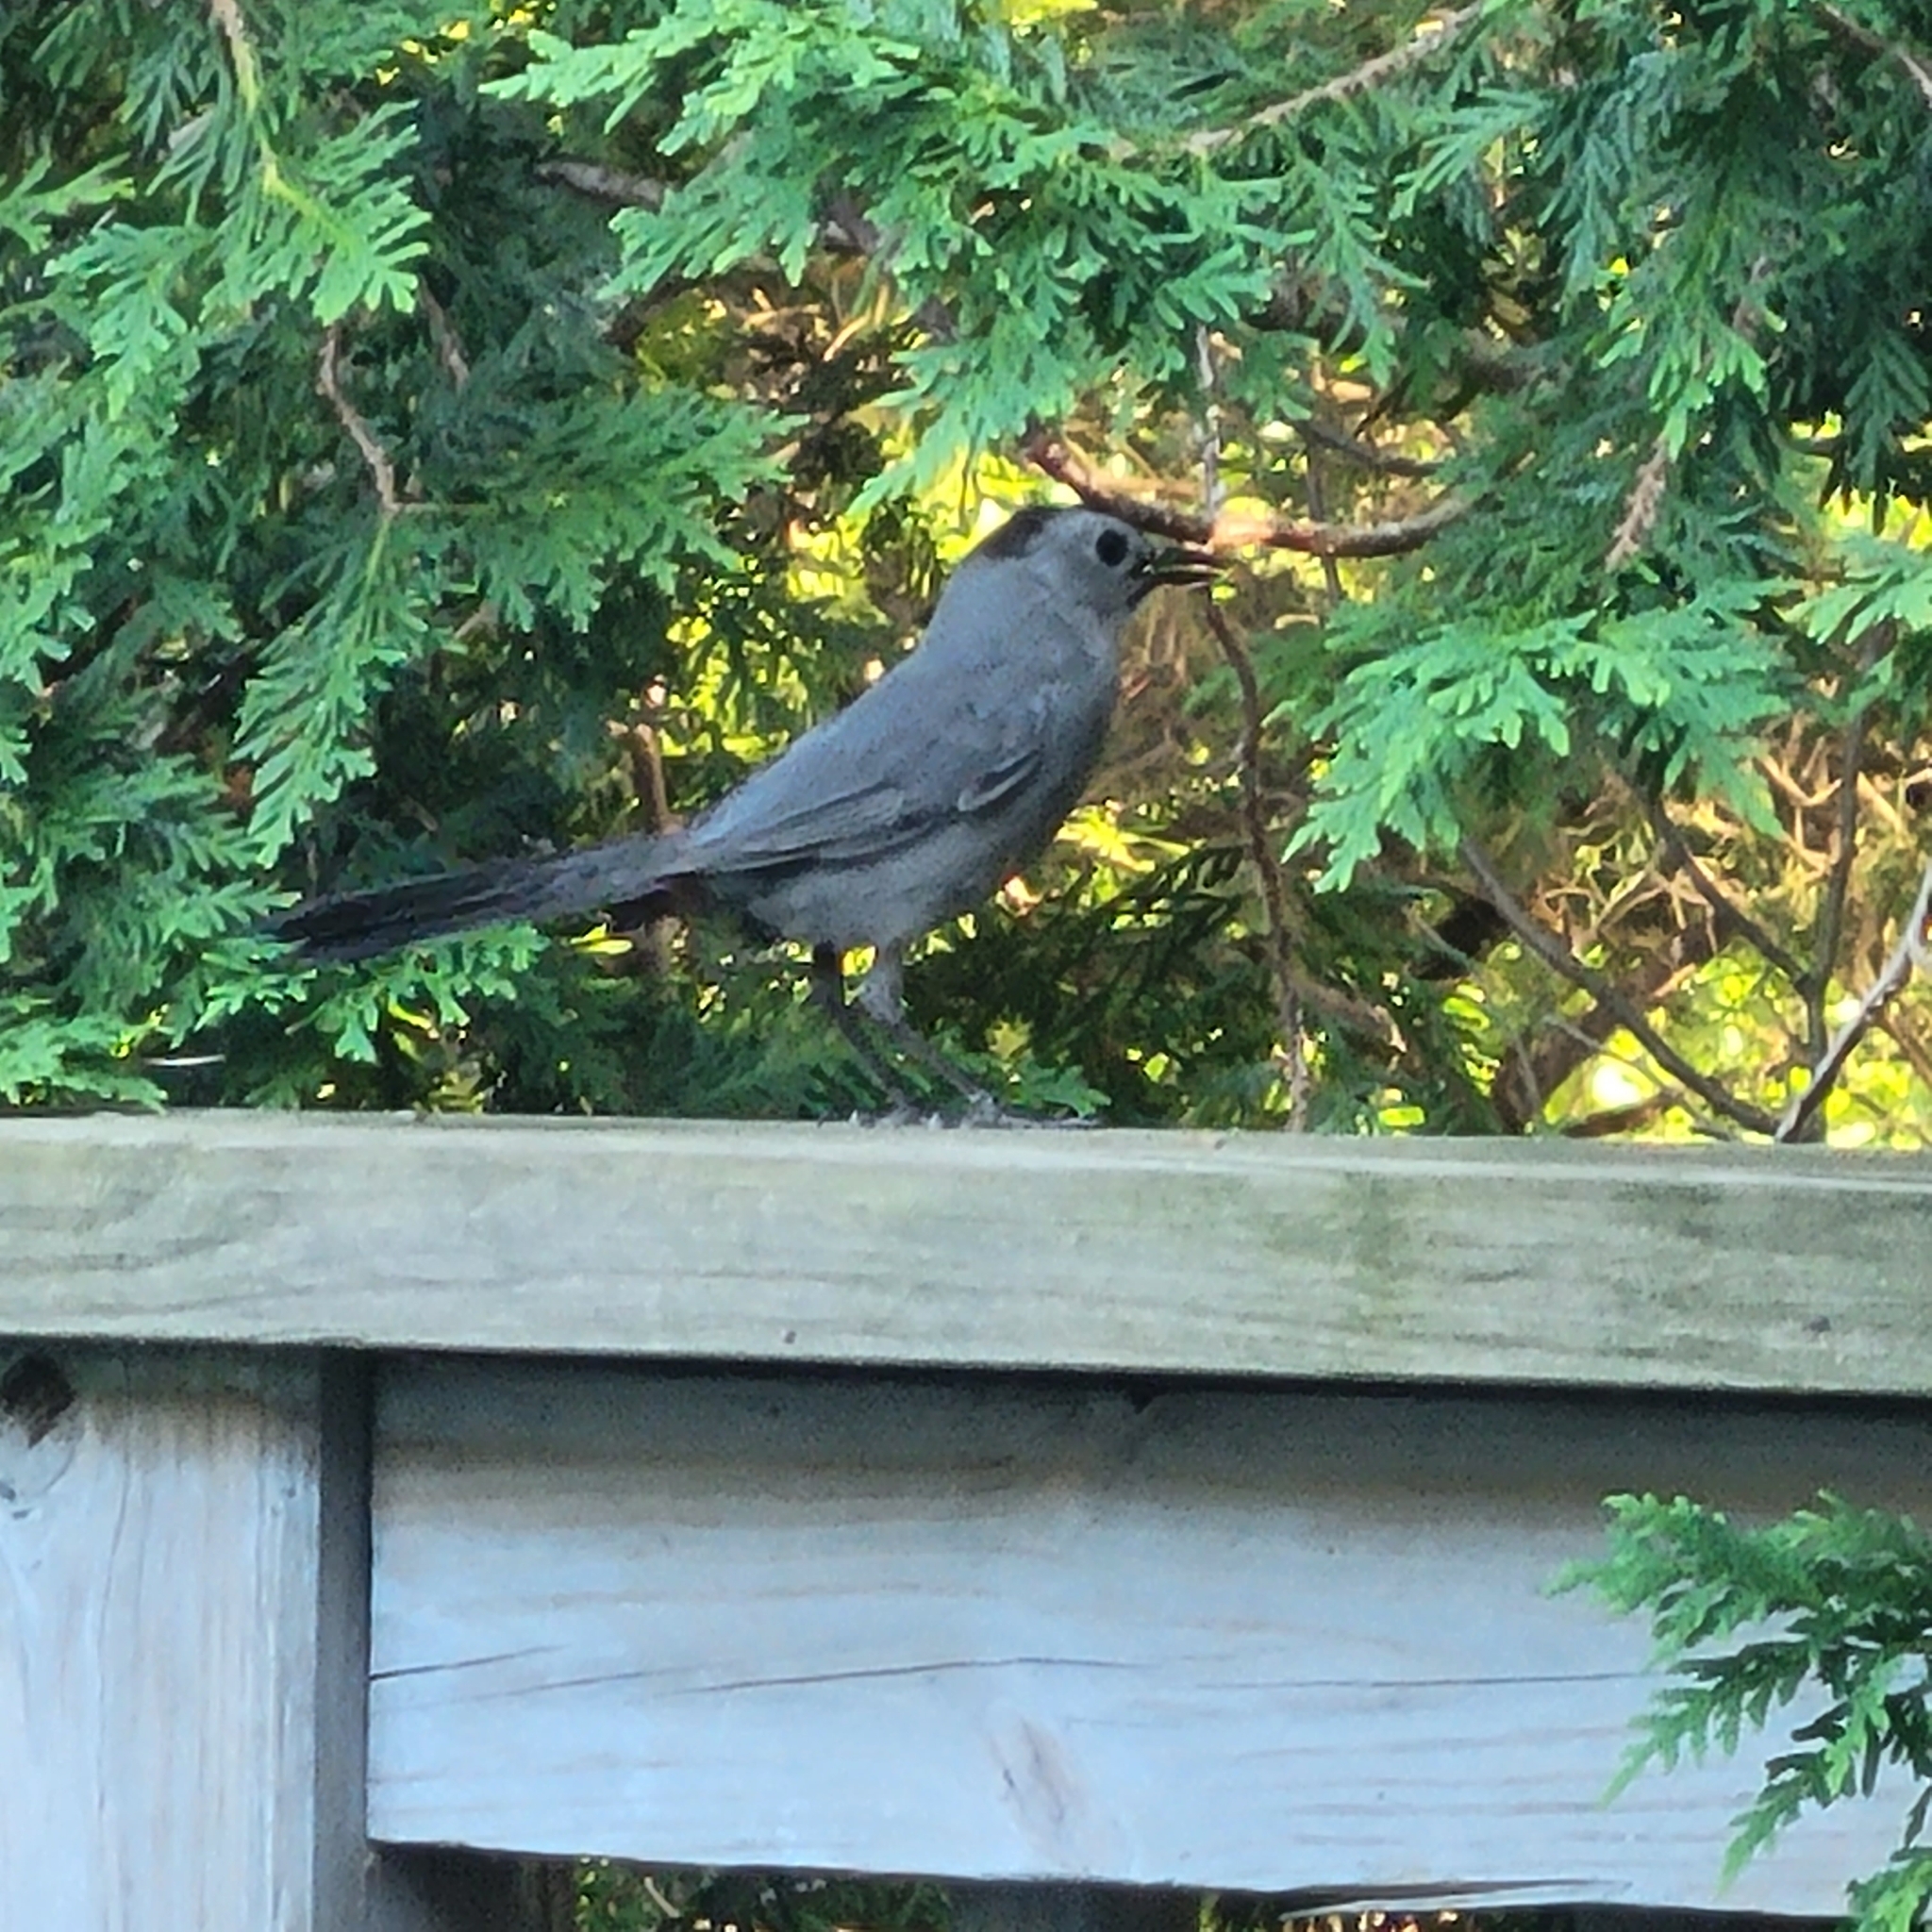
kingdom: Animalia
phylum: Chordata
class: Aves
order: Passeriformes
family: Mimidae
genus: Dumetella
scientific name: Dumetella carolinensis
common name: Gray catbird
